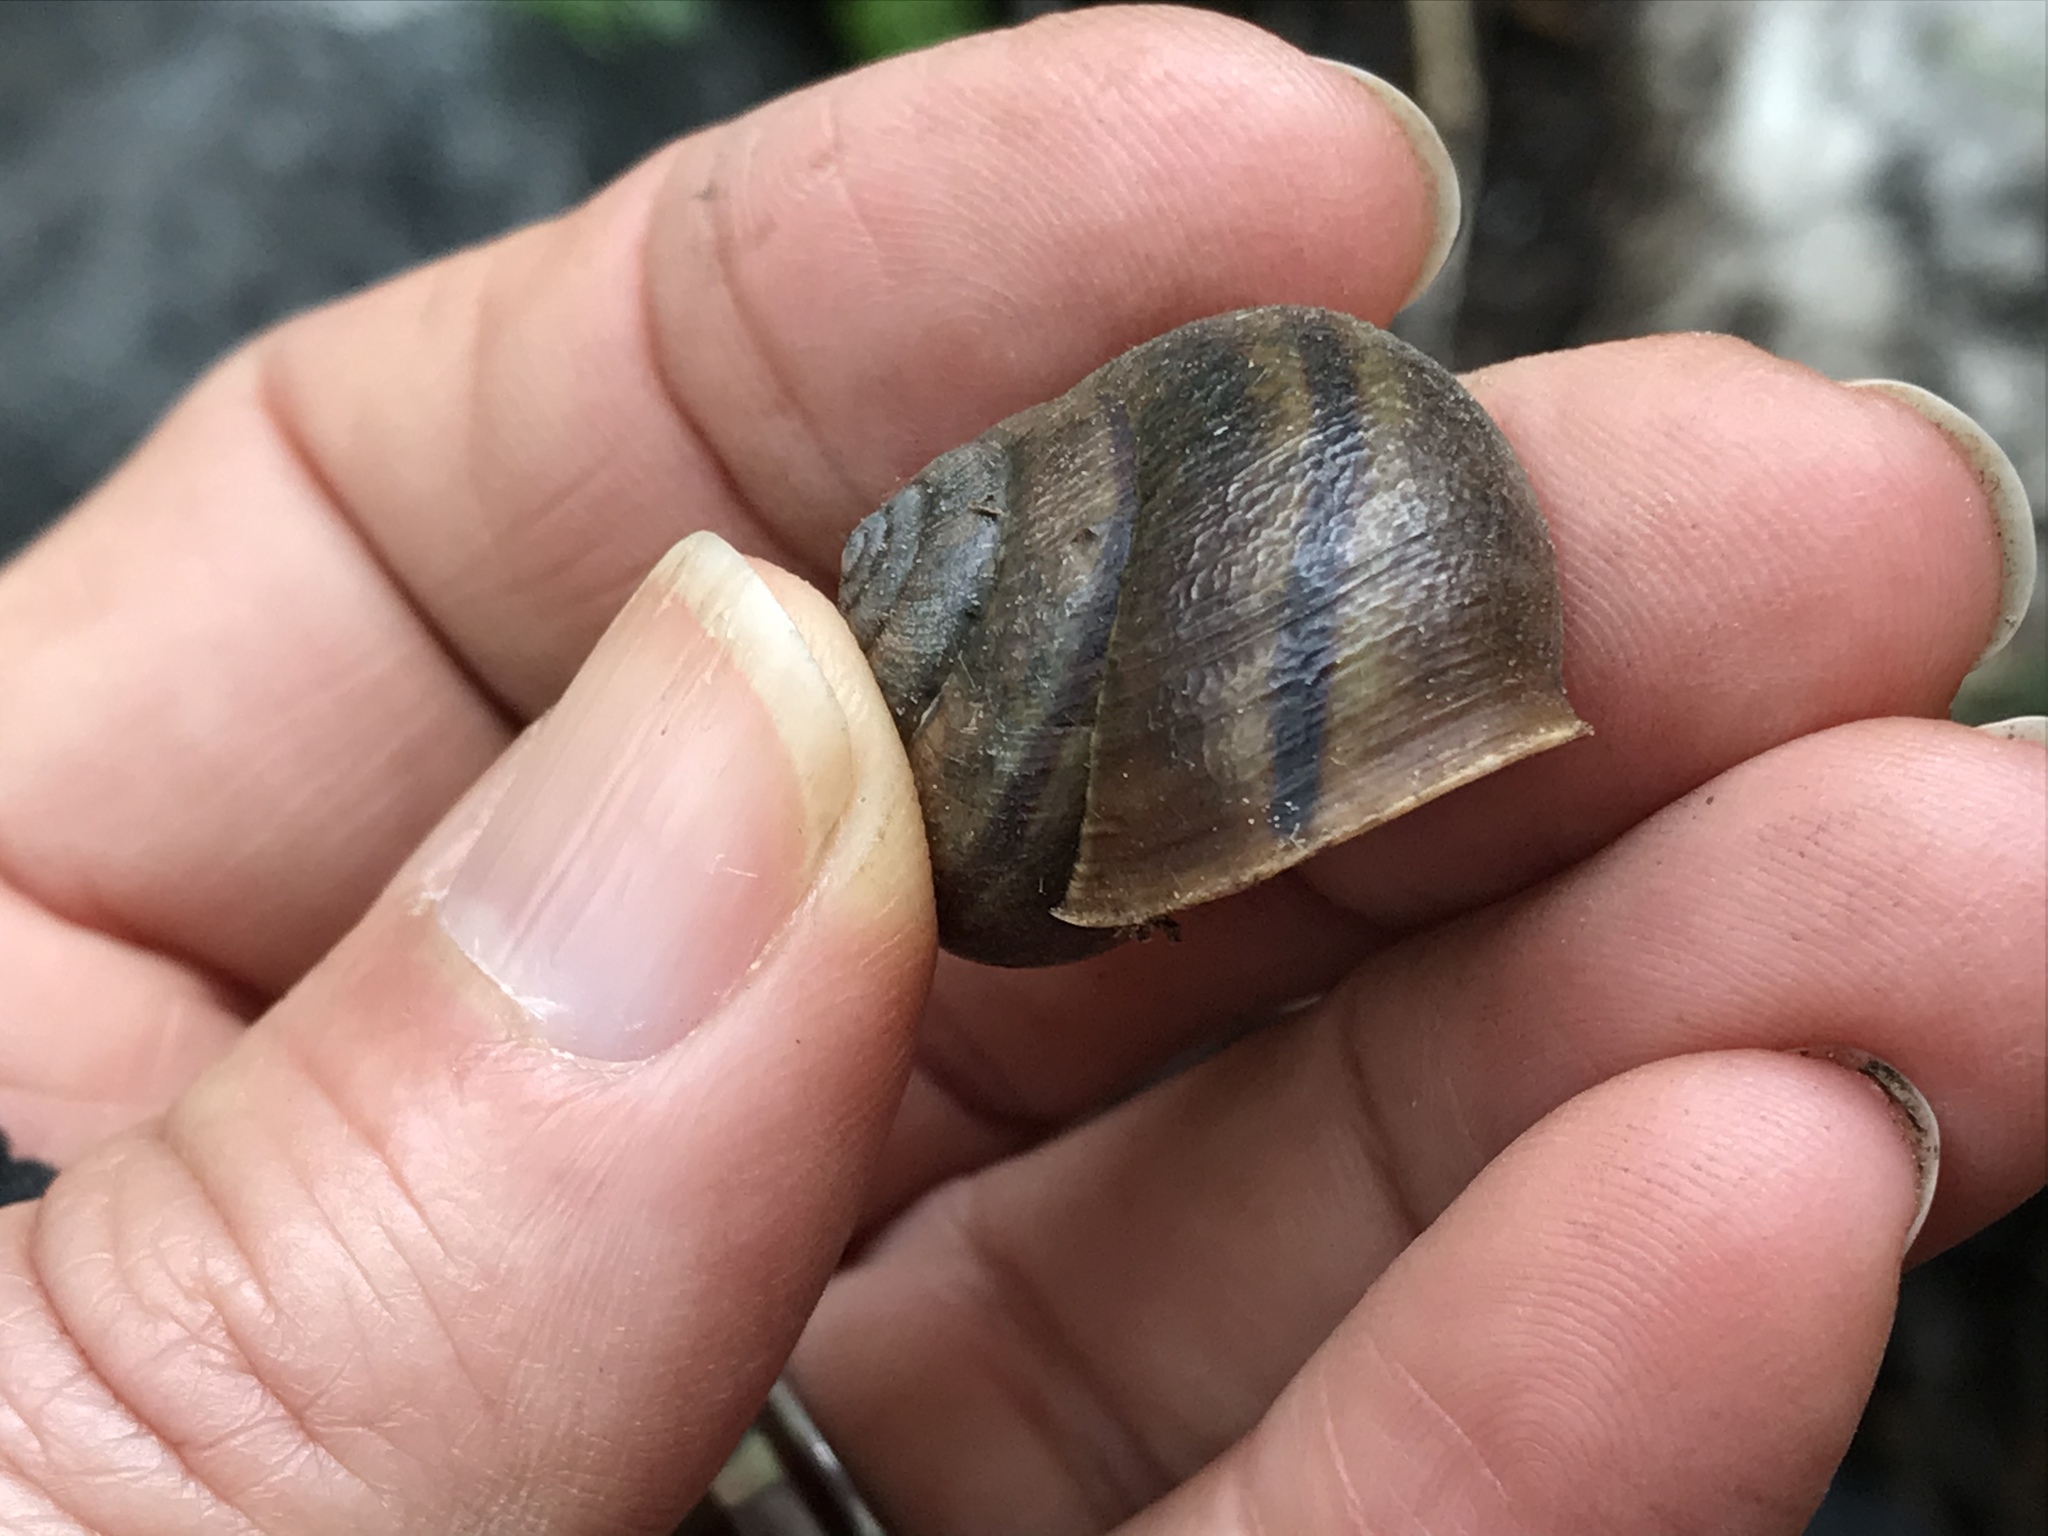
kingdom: Animalia
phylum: Mollusca
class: Gastropoda
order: Stylommatophora
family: Xanthonychidae
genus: Helminthoglypta
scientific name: Helminthoglypta tudiculata
